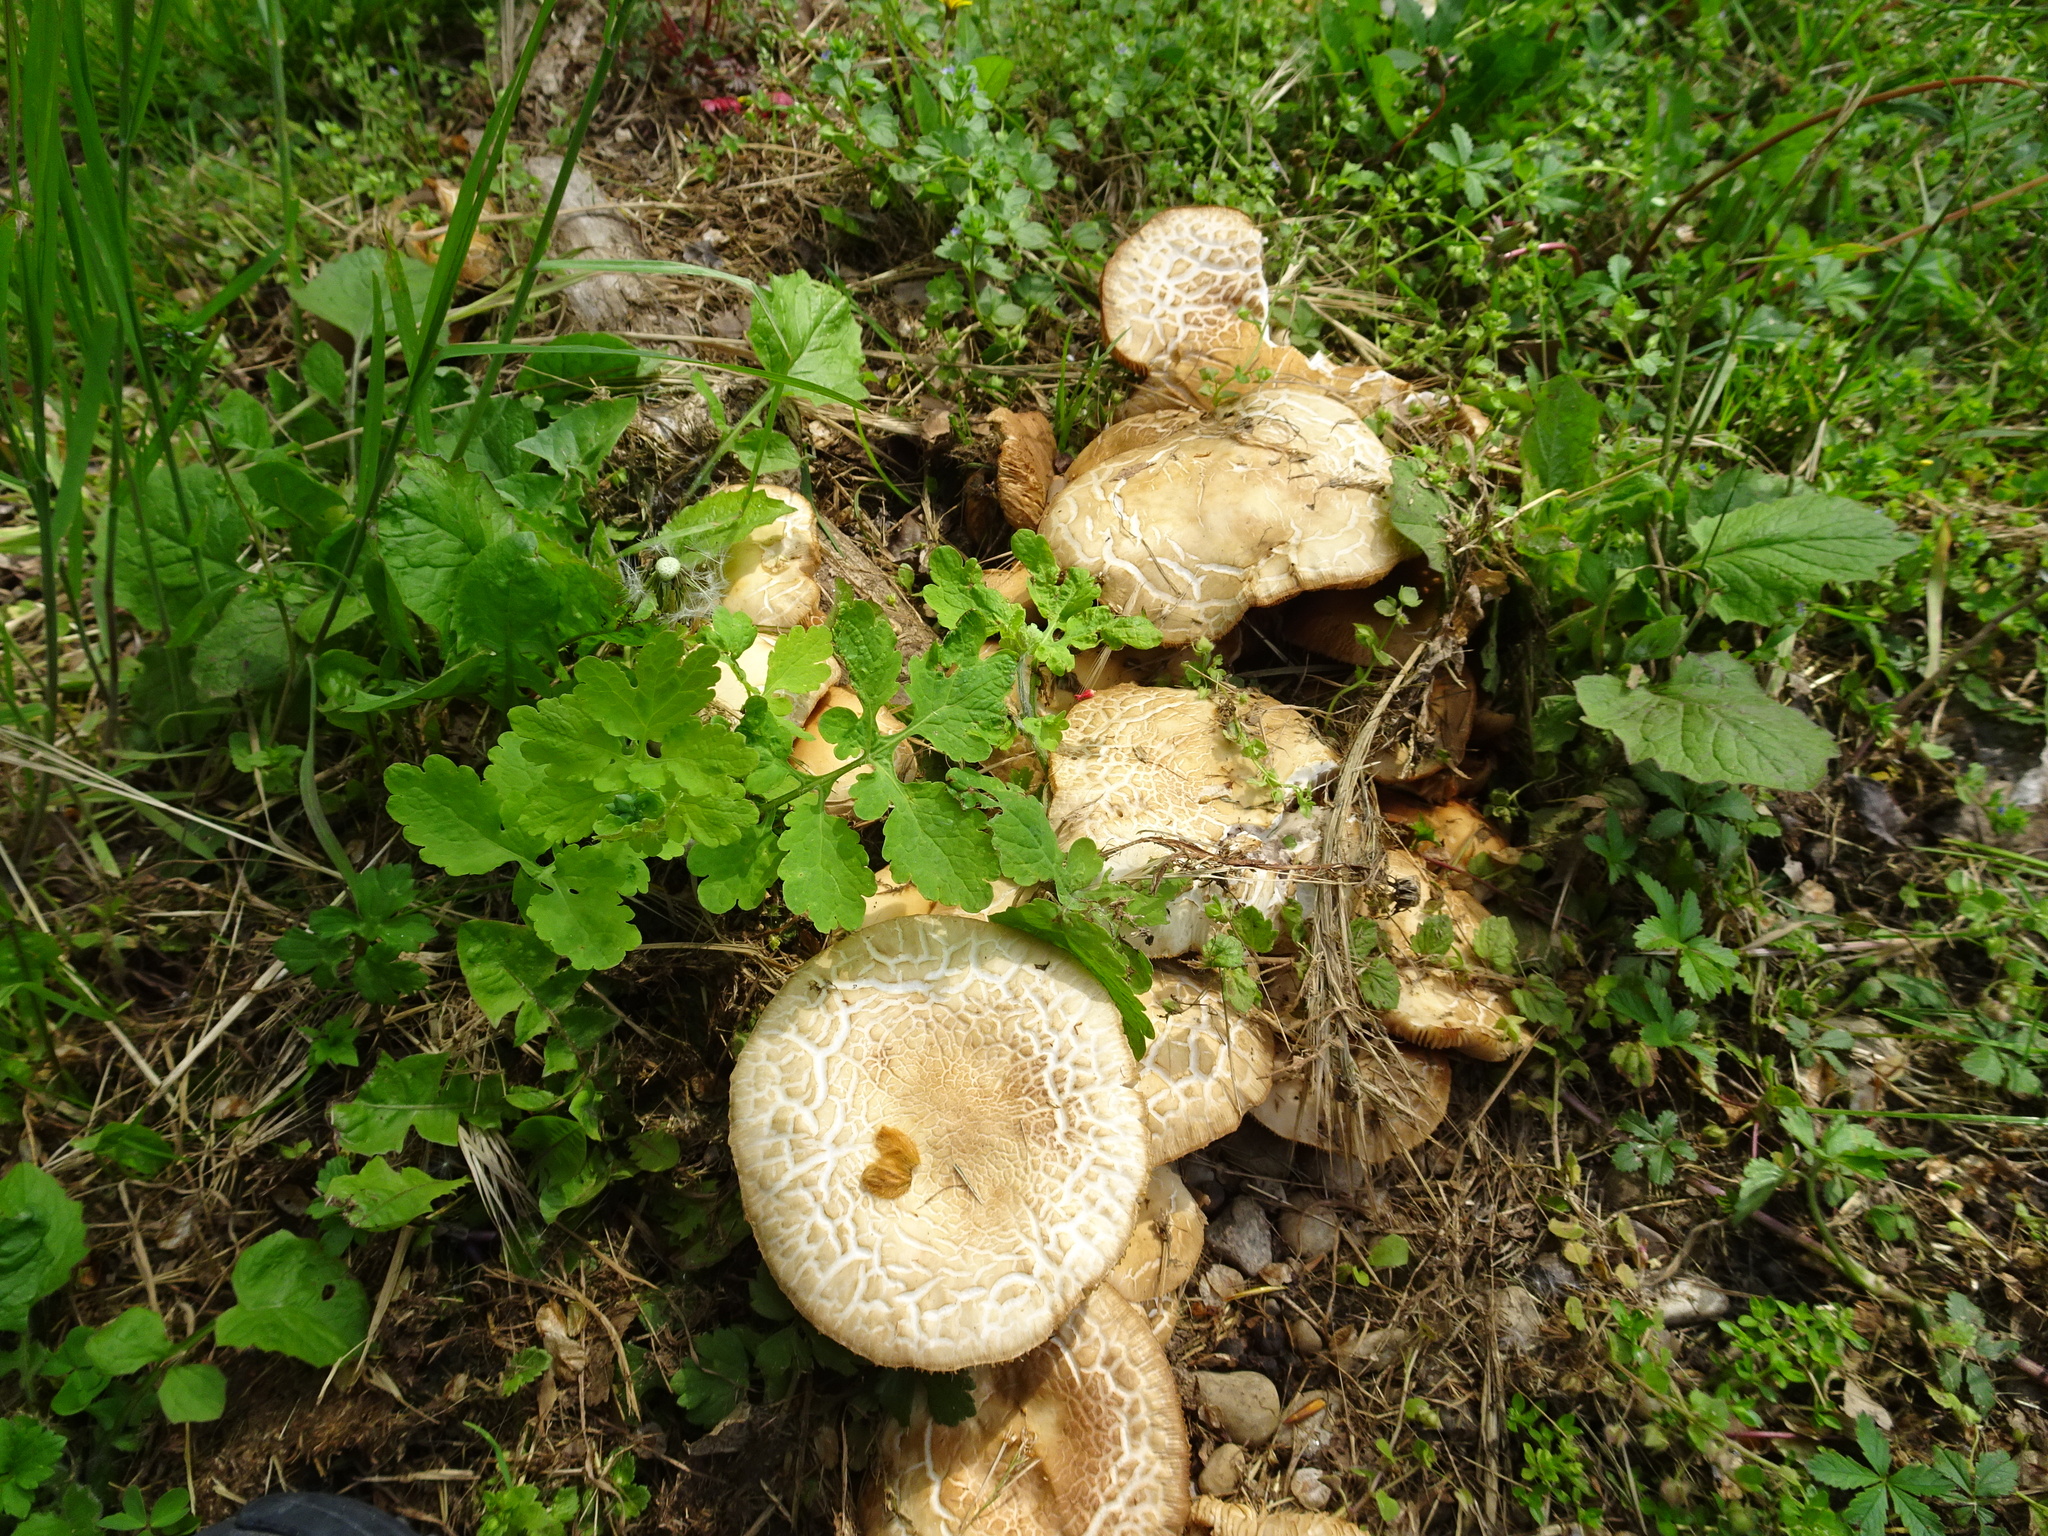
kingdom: Fungi
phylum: Basidiomycota
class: Agaricomycetes
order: Agaricales
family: Tubariaceae
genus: Cyclocybe
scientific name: Cyclocybe cylindracea
